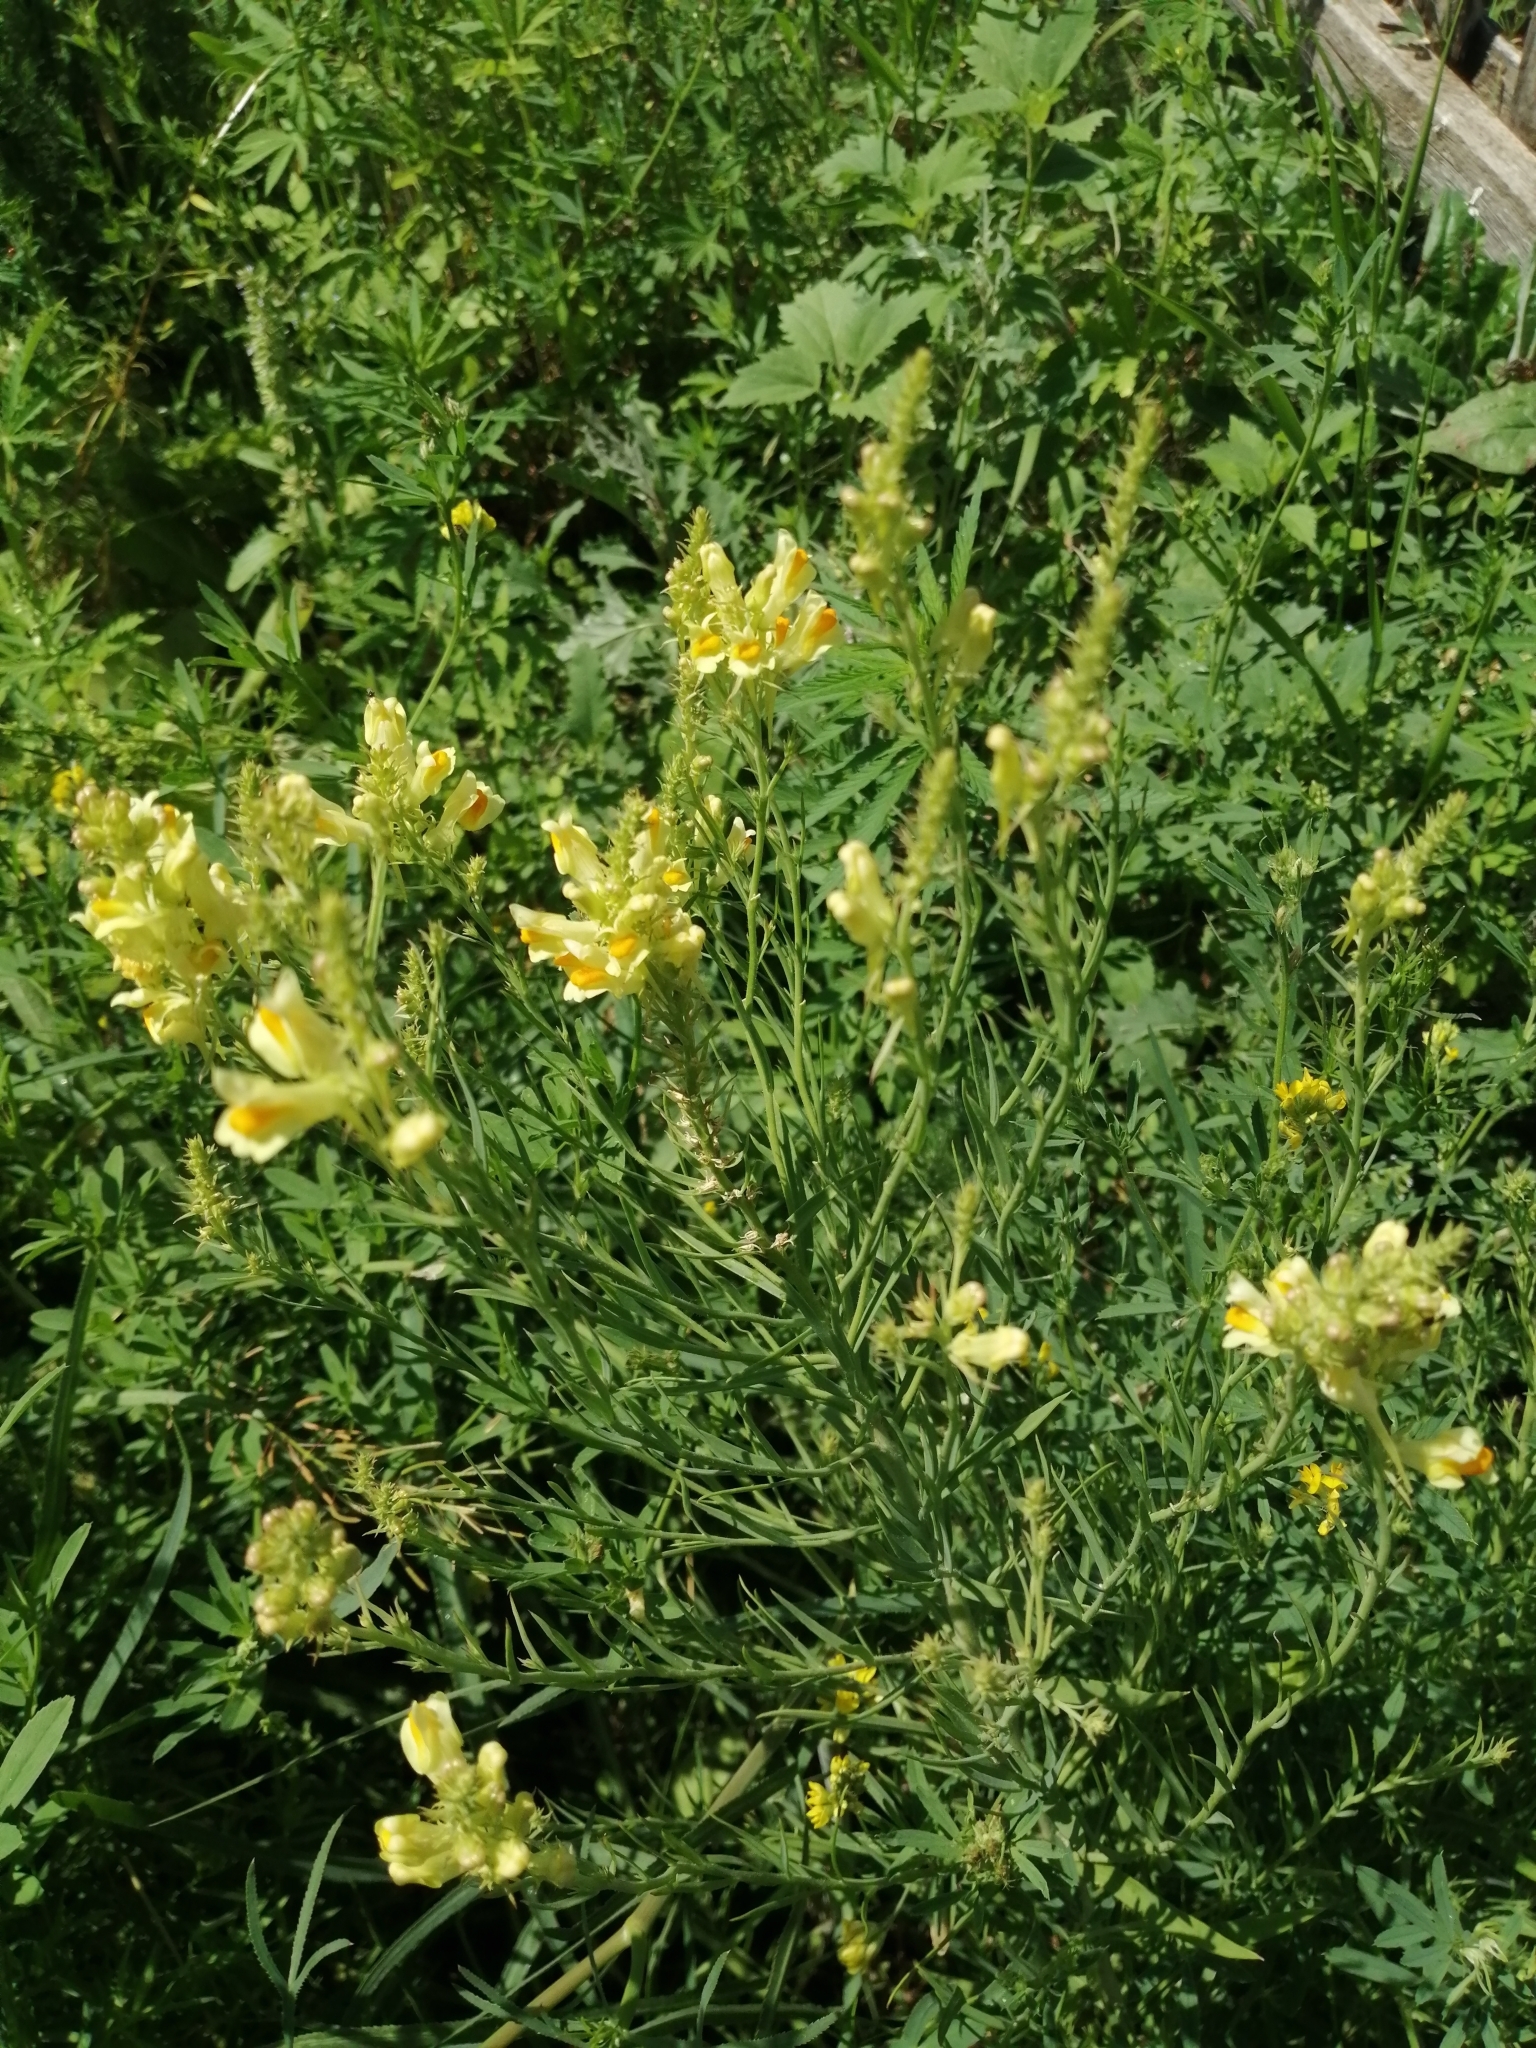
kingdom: Plantae
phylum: Tracheophyta
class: Magnoliopsida
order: Lamiales
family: Plantaginaceae
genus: Linaria
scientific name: Linaria vulgaris
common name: Butter and eggs
